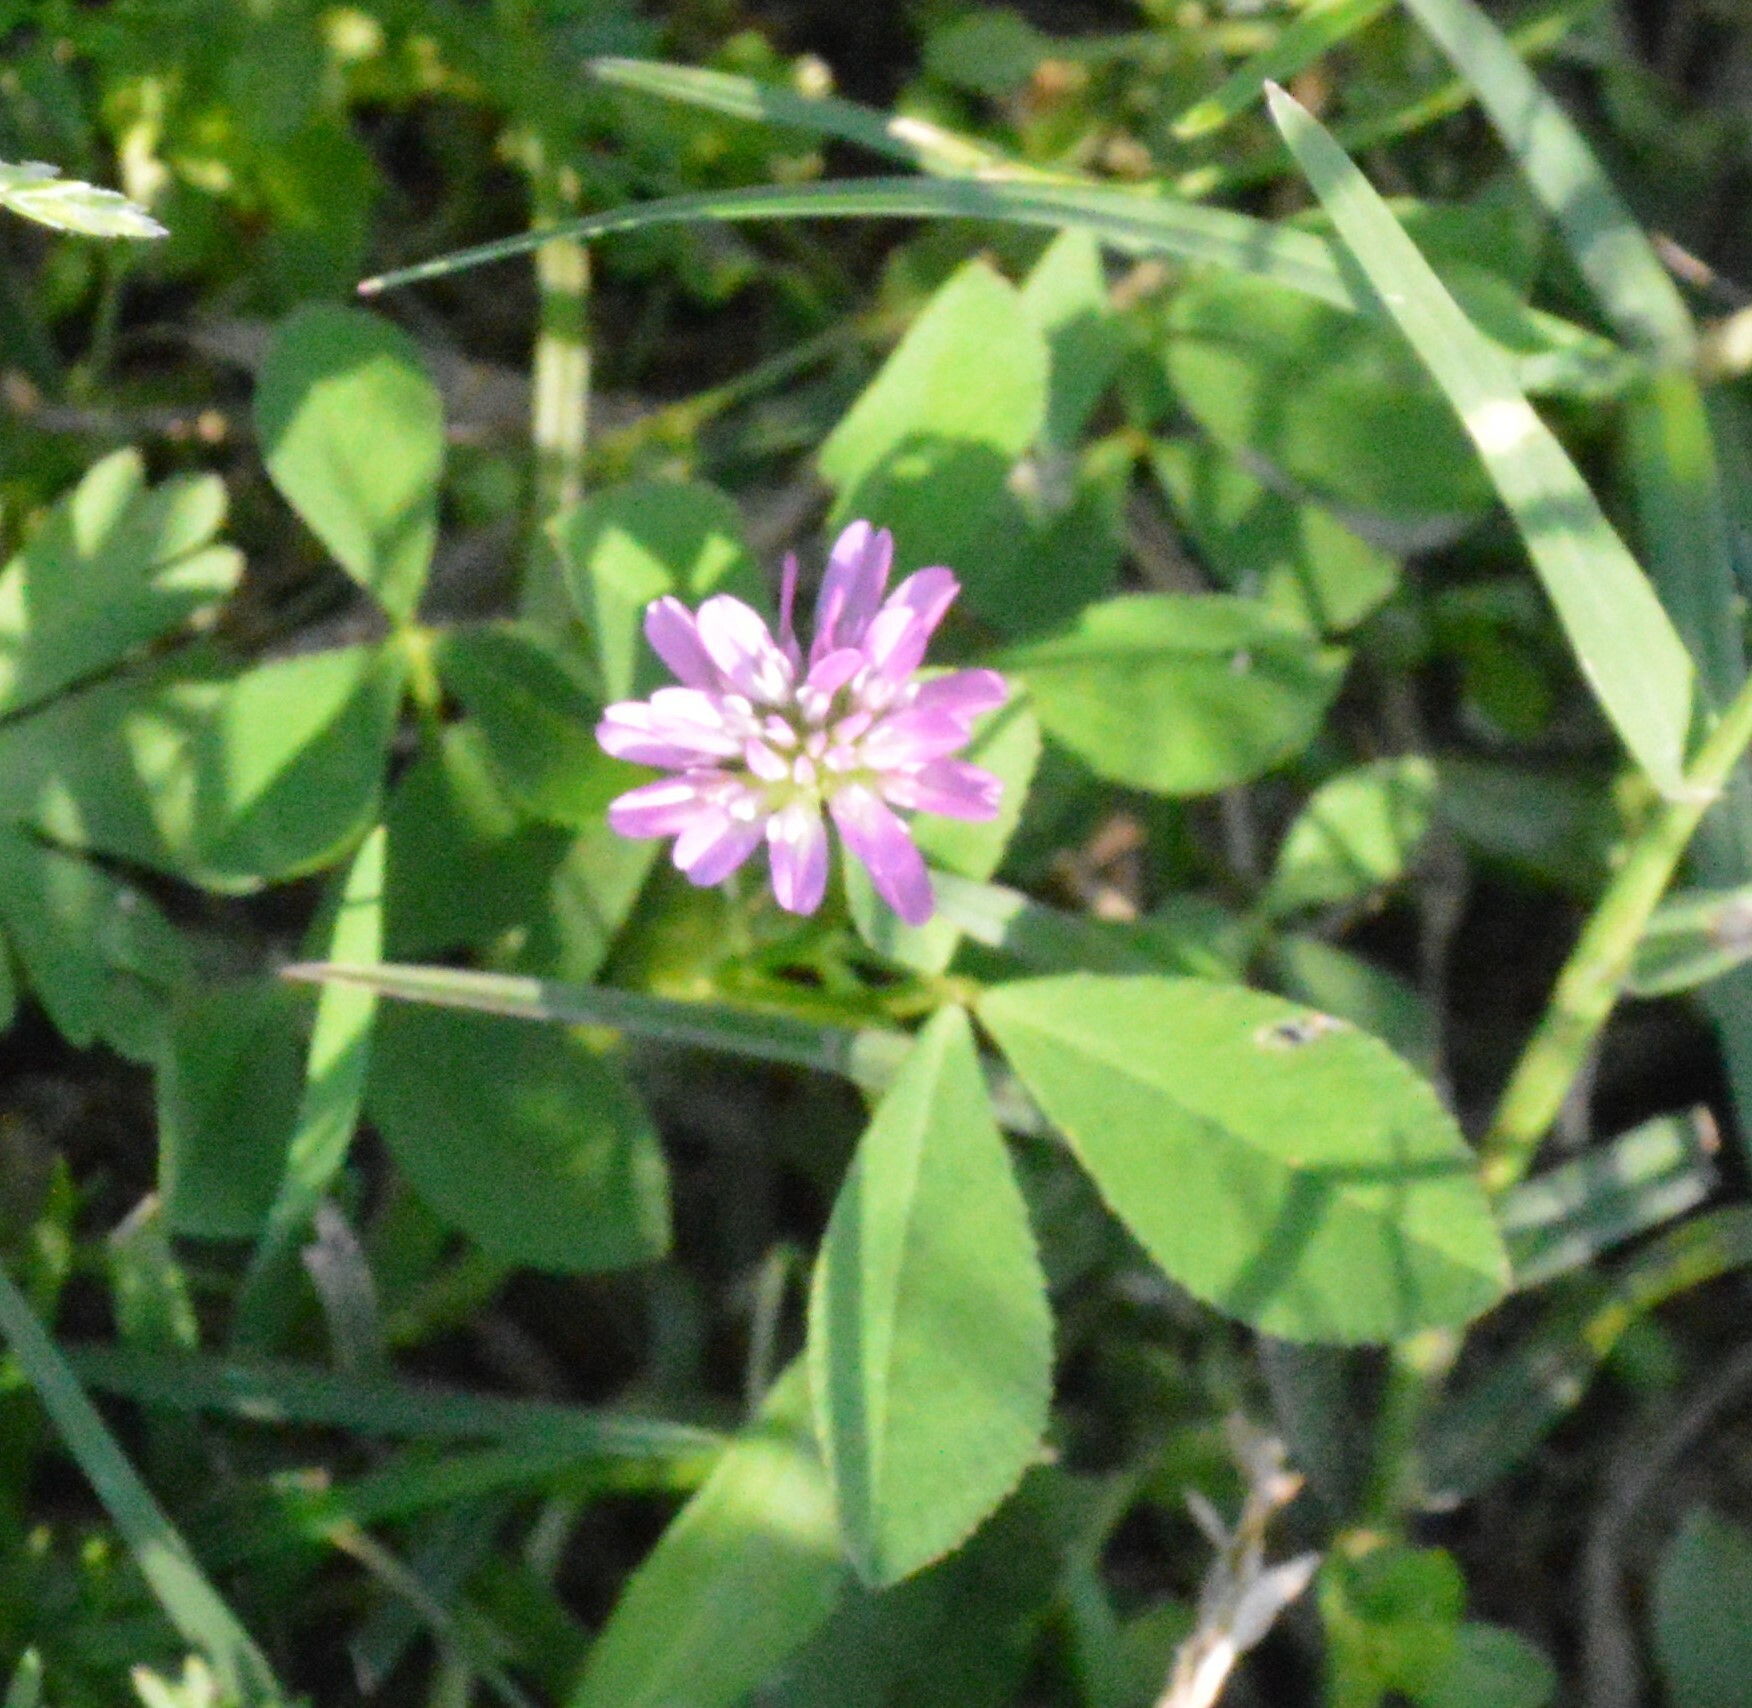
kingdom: Plantae
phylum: Tracheophyta
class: Magnoliopsida
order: Fabales
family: Fabaceae
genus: Trifolium
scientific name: Trifolium resupinatum
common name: Reversed clover
